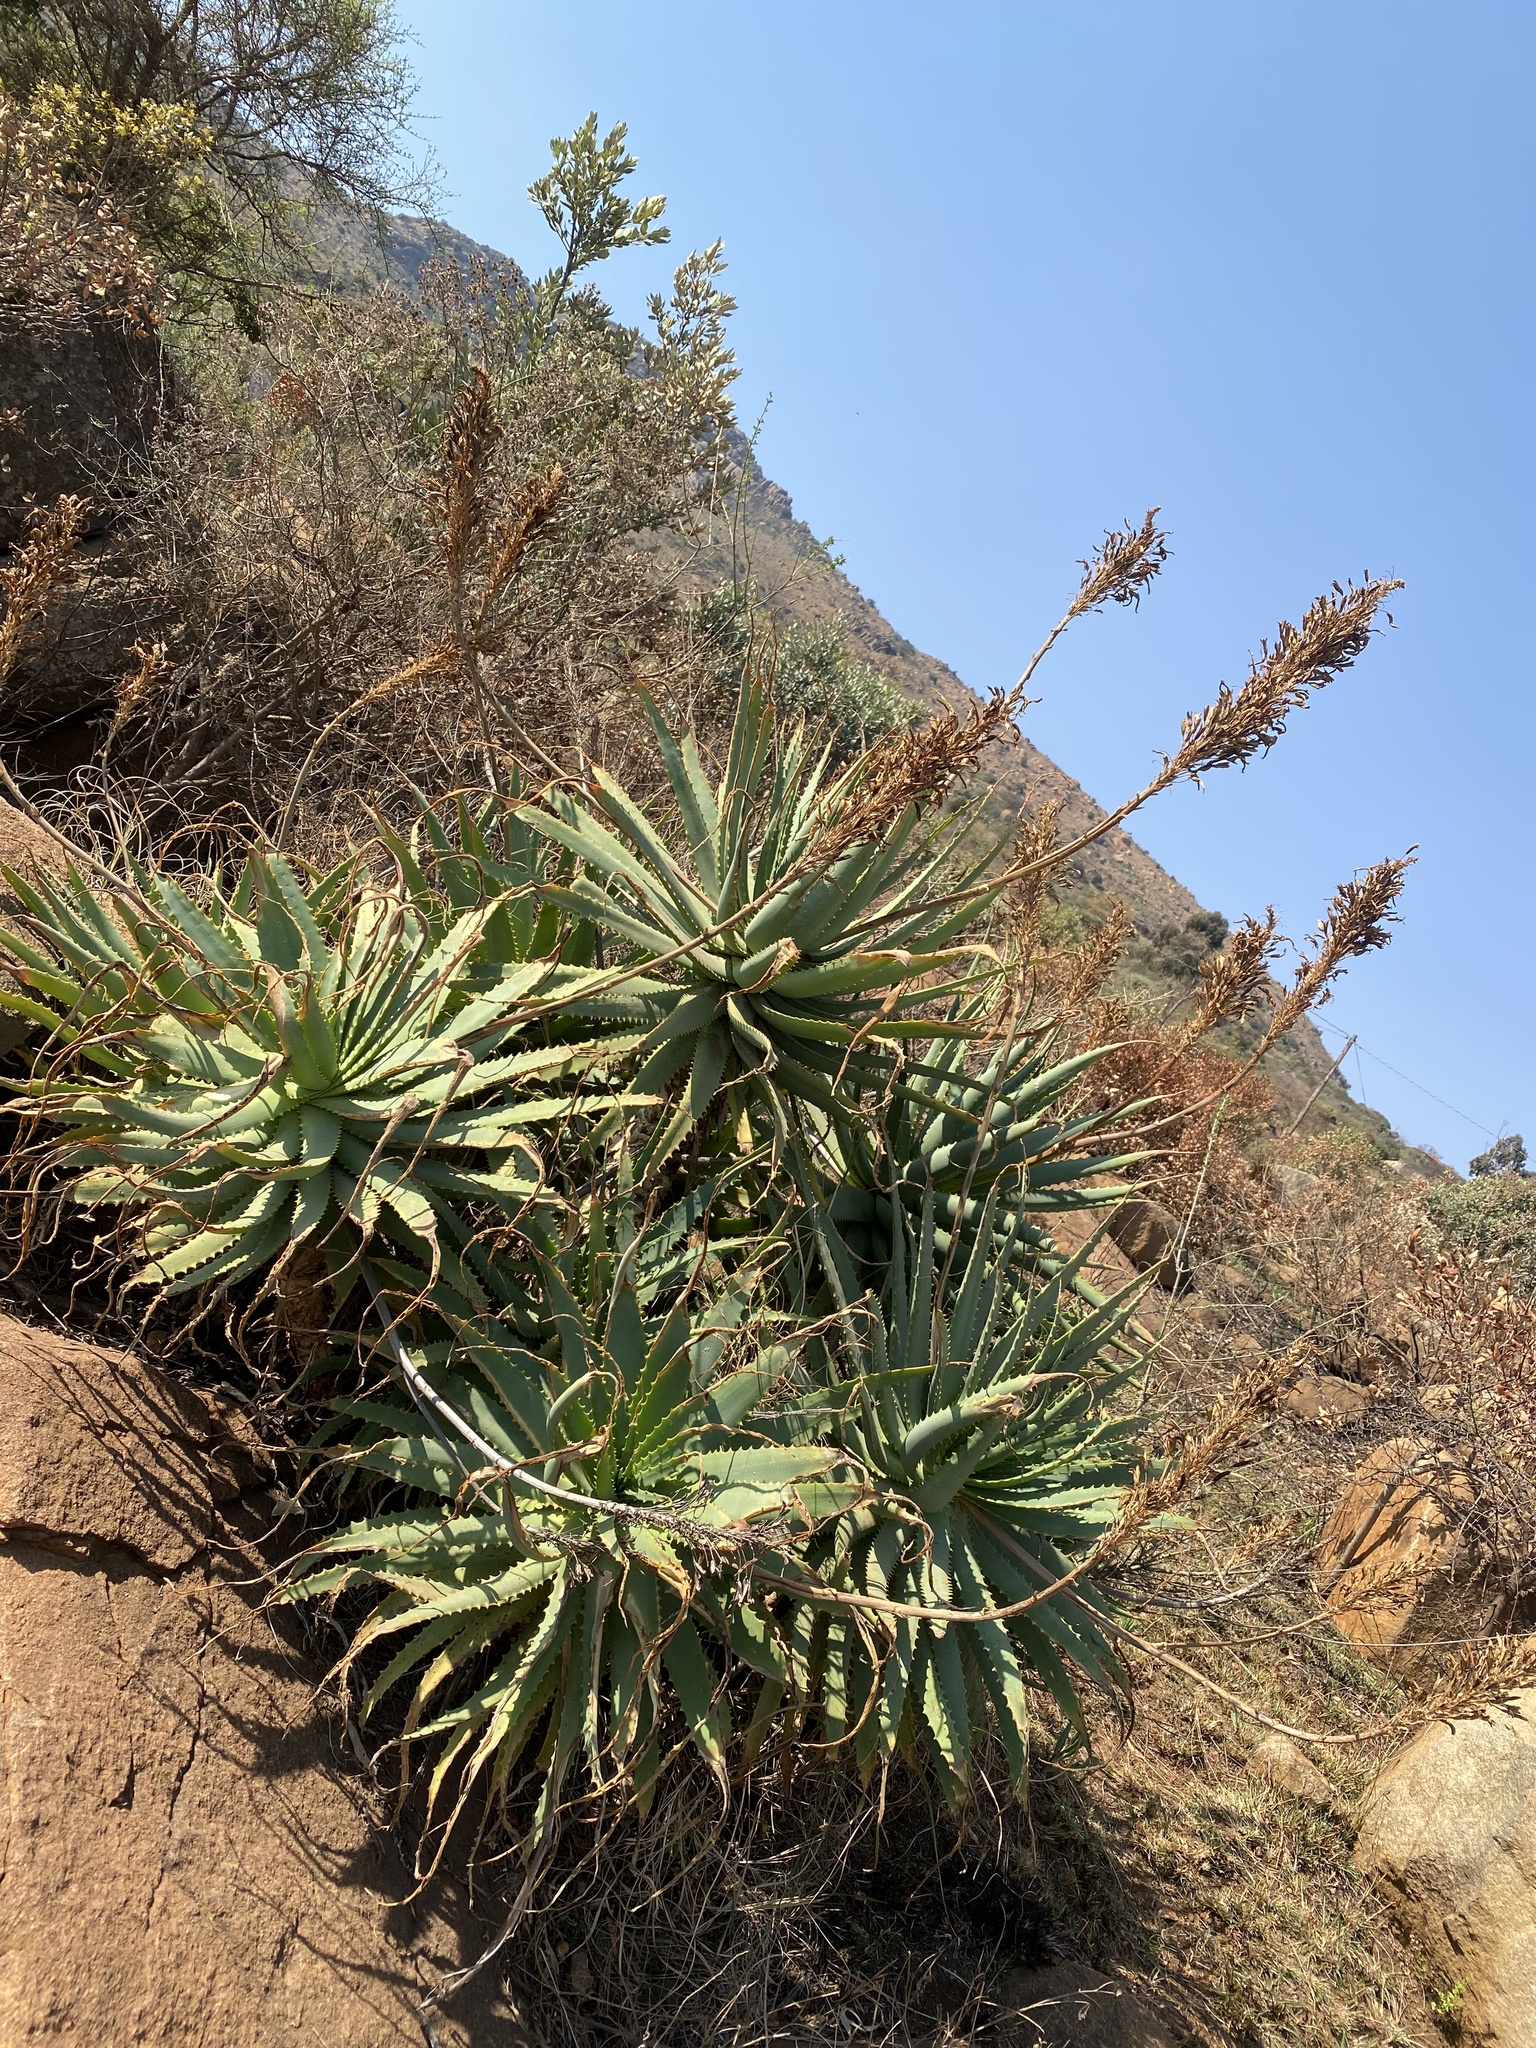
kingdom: Plantae
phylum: Tracheophyta
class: Liliopsida
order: Asparagales
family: Asphodelaceae
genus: Aloe
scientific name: Aloe arborescens
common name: Candelabra aloe
